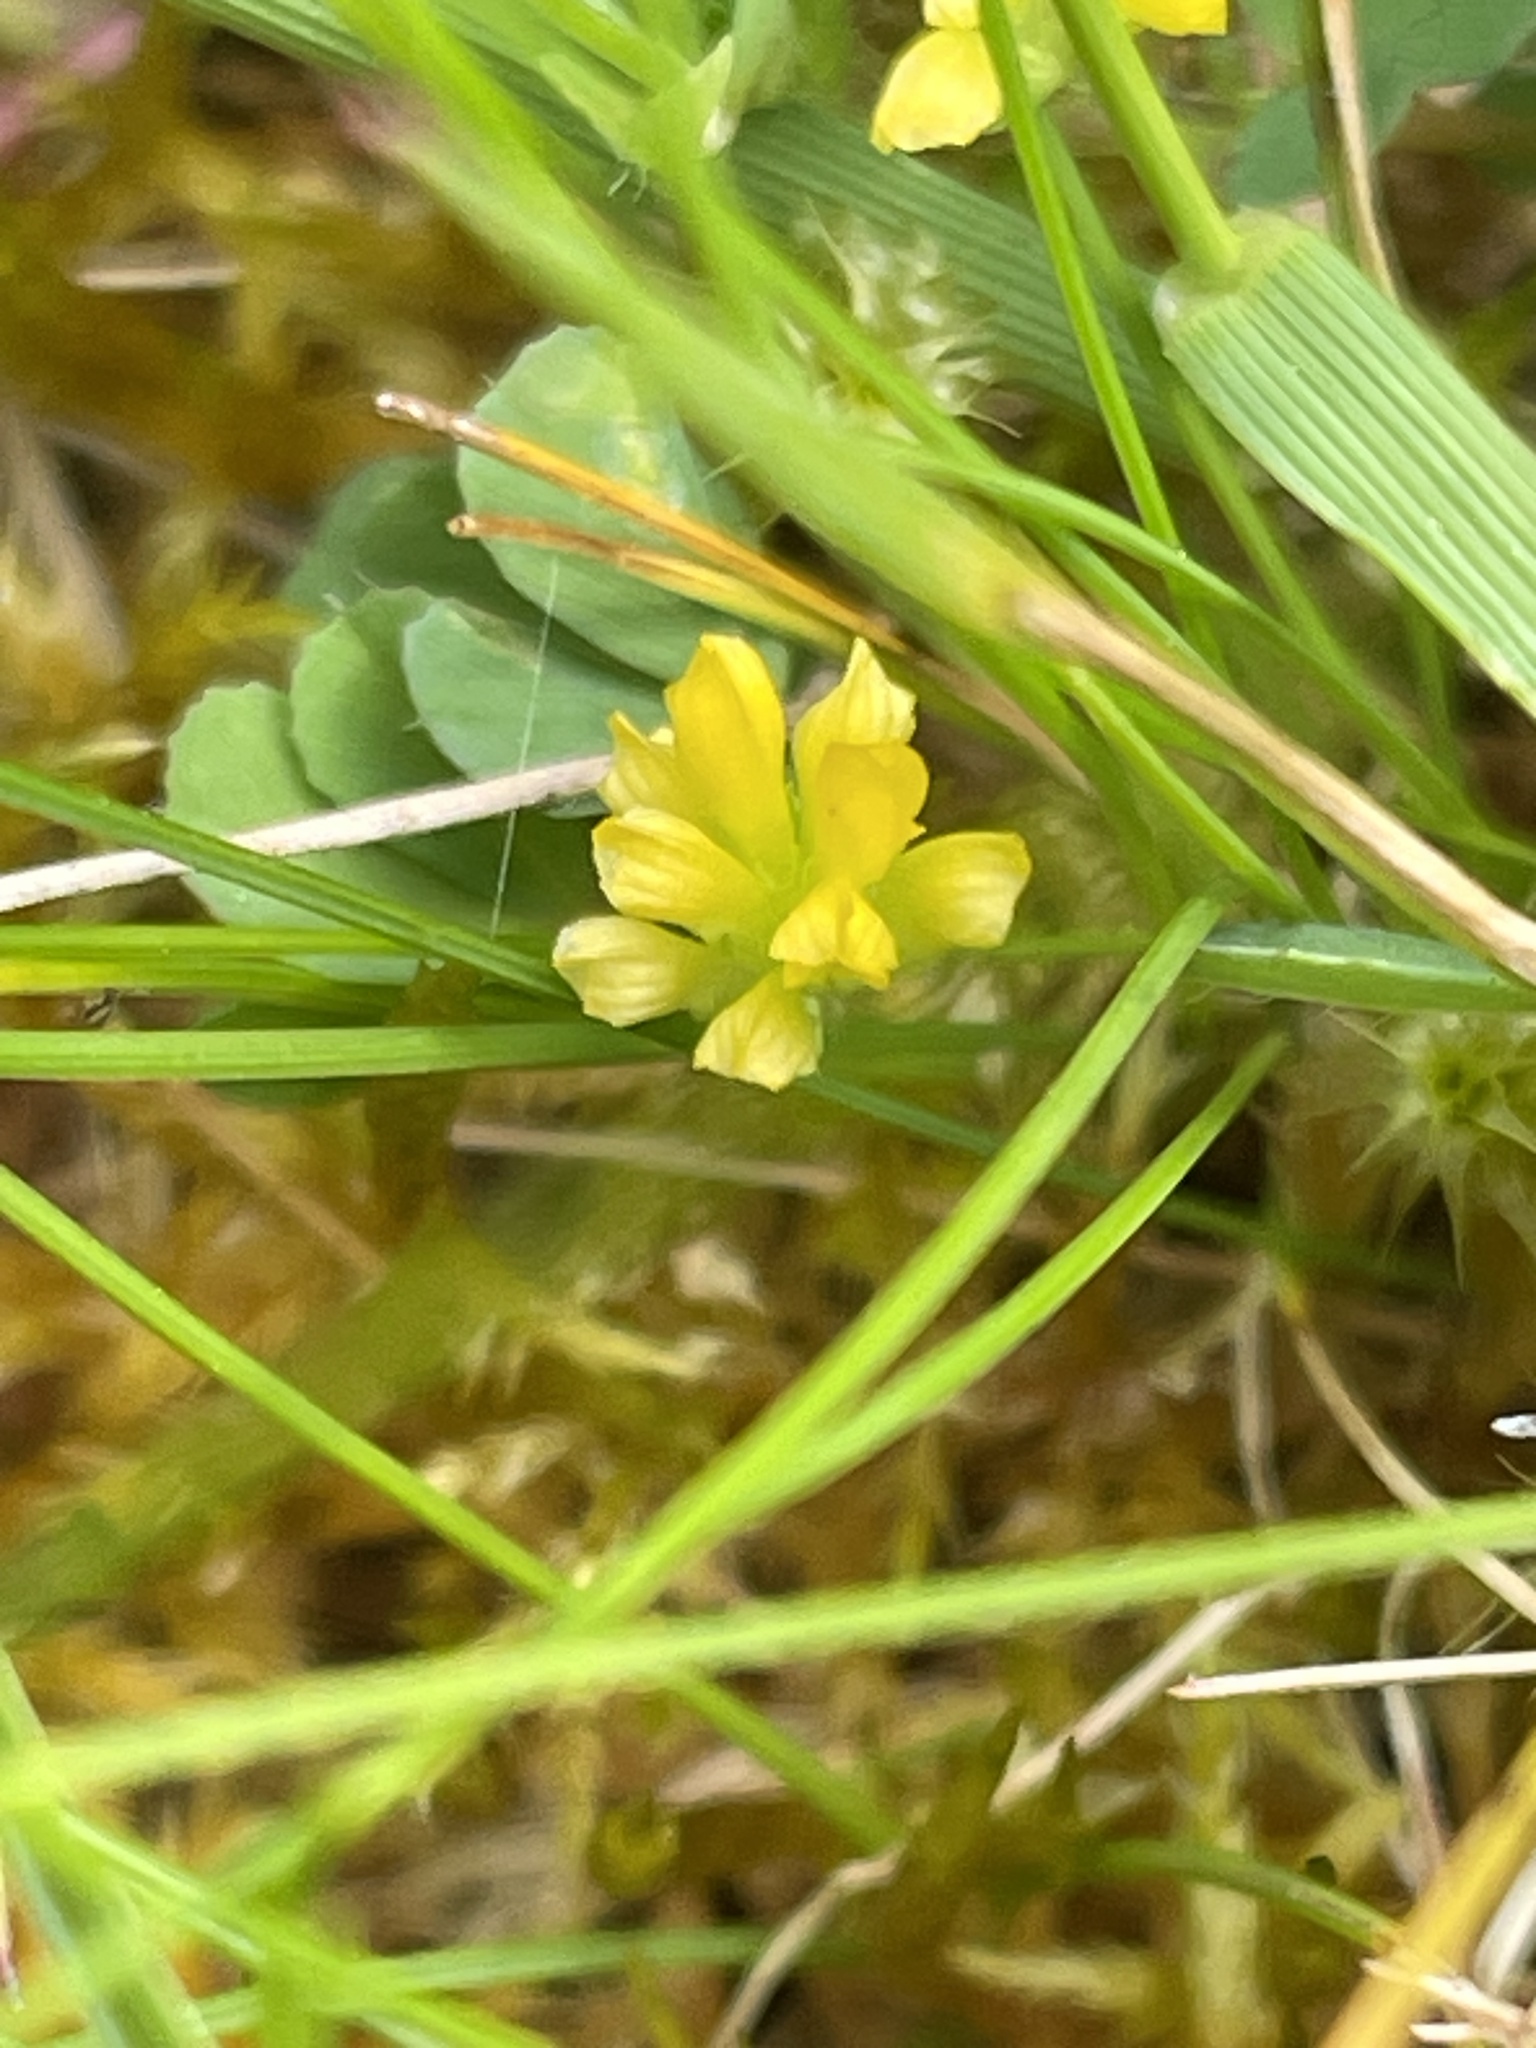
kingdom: Plantae
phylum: Tracheophyta
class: Magnoliopsida
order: Fabales
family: Fabaceae
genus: Trifolium
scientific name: Trifolium dubium
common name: Suckling clover
